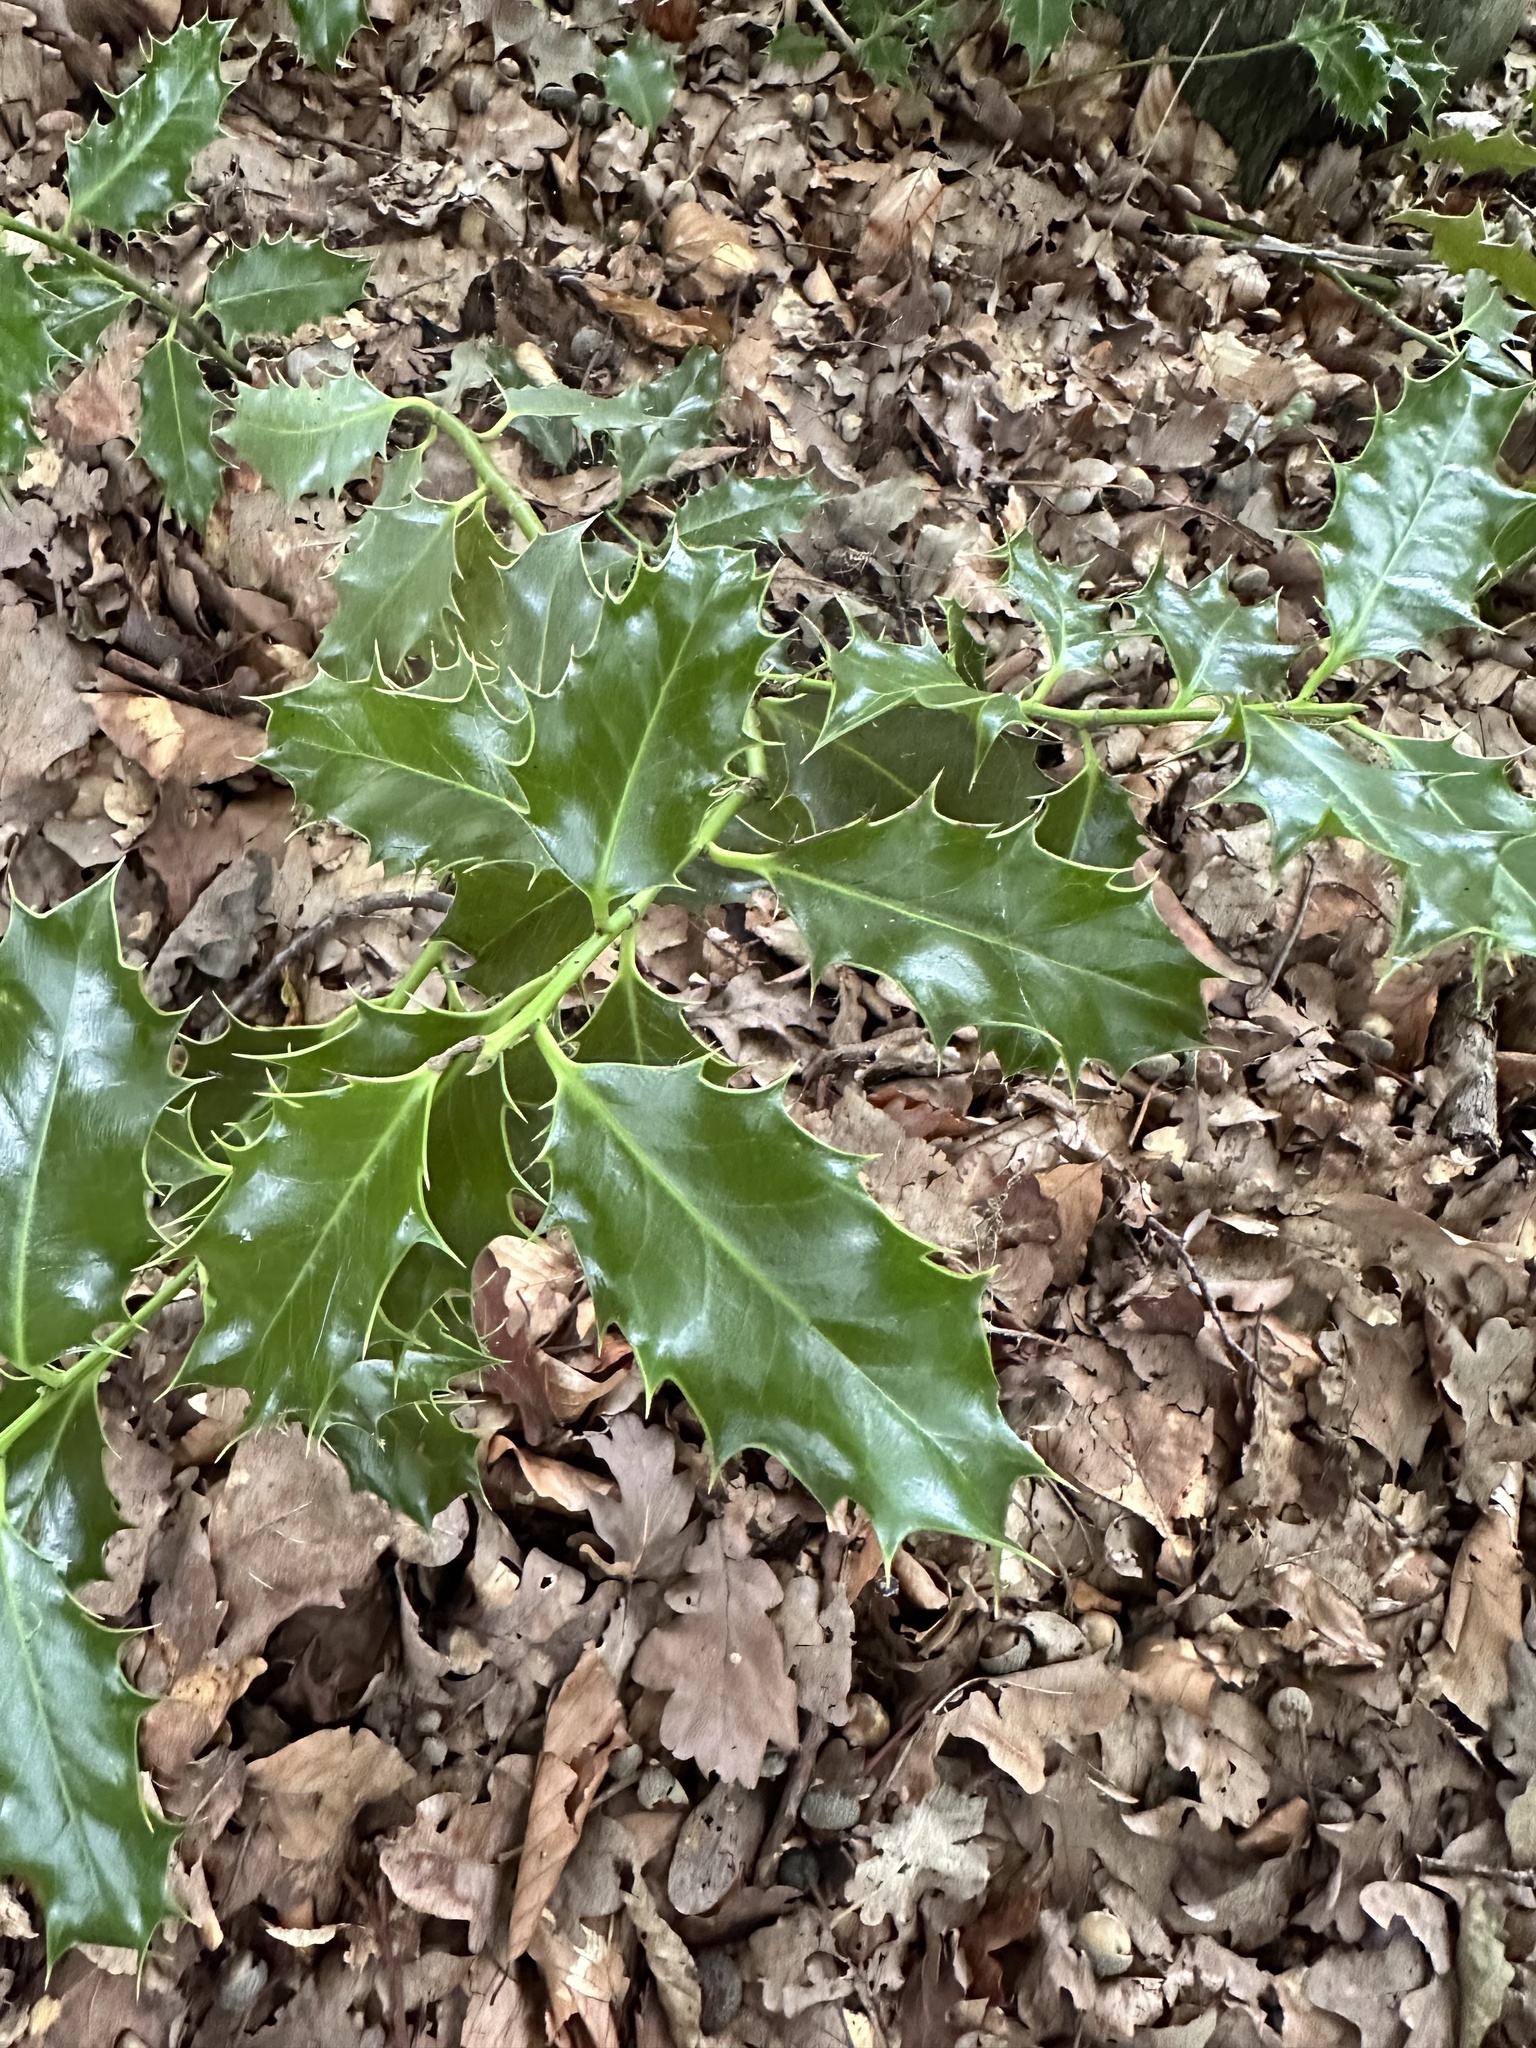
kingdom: Plantae
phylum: Tracheophyta
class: Magnoliopsida
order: Aquifoliales
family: Aquifoliaceae
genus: Ilex
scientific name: Ilex aquifolium
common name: English holly
